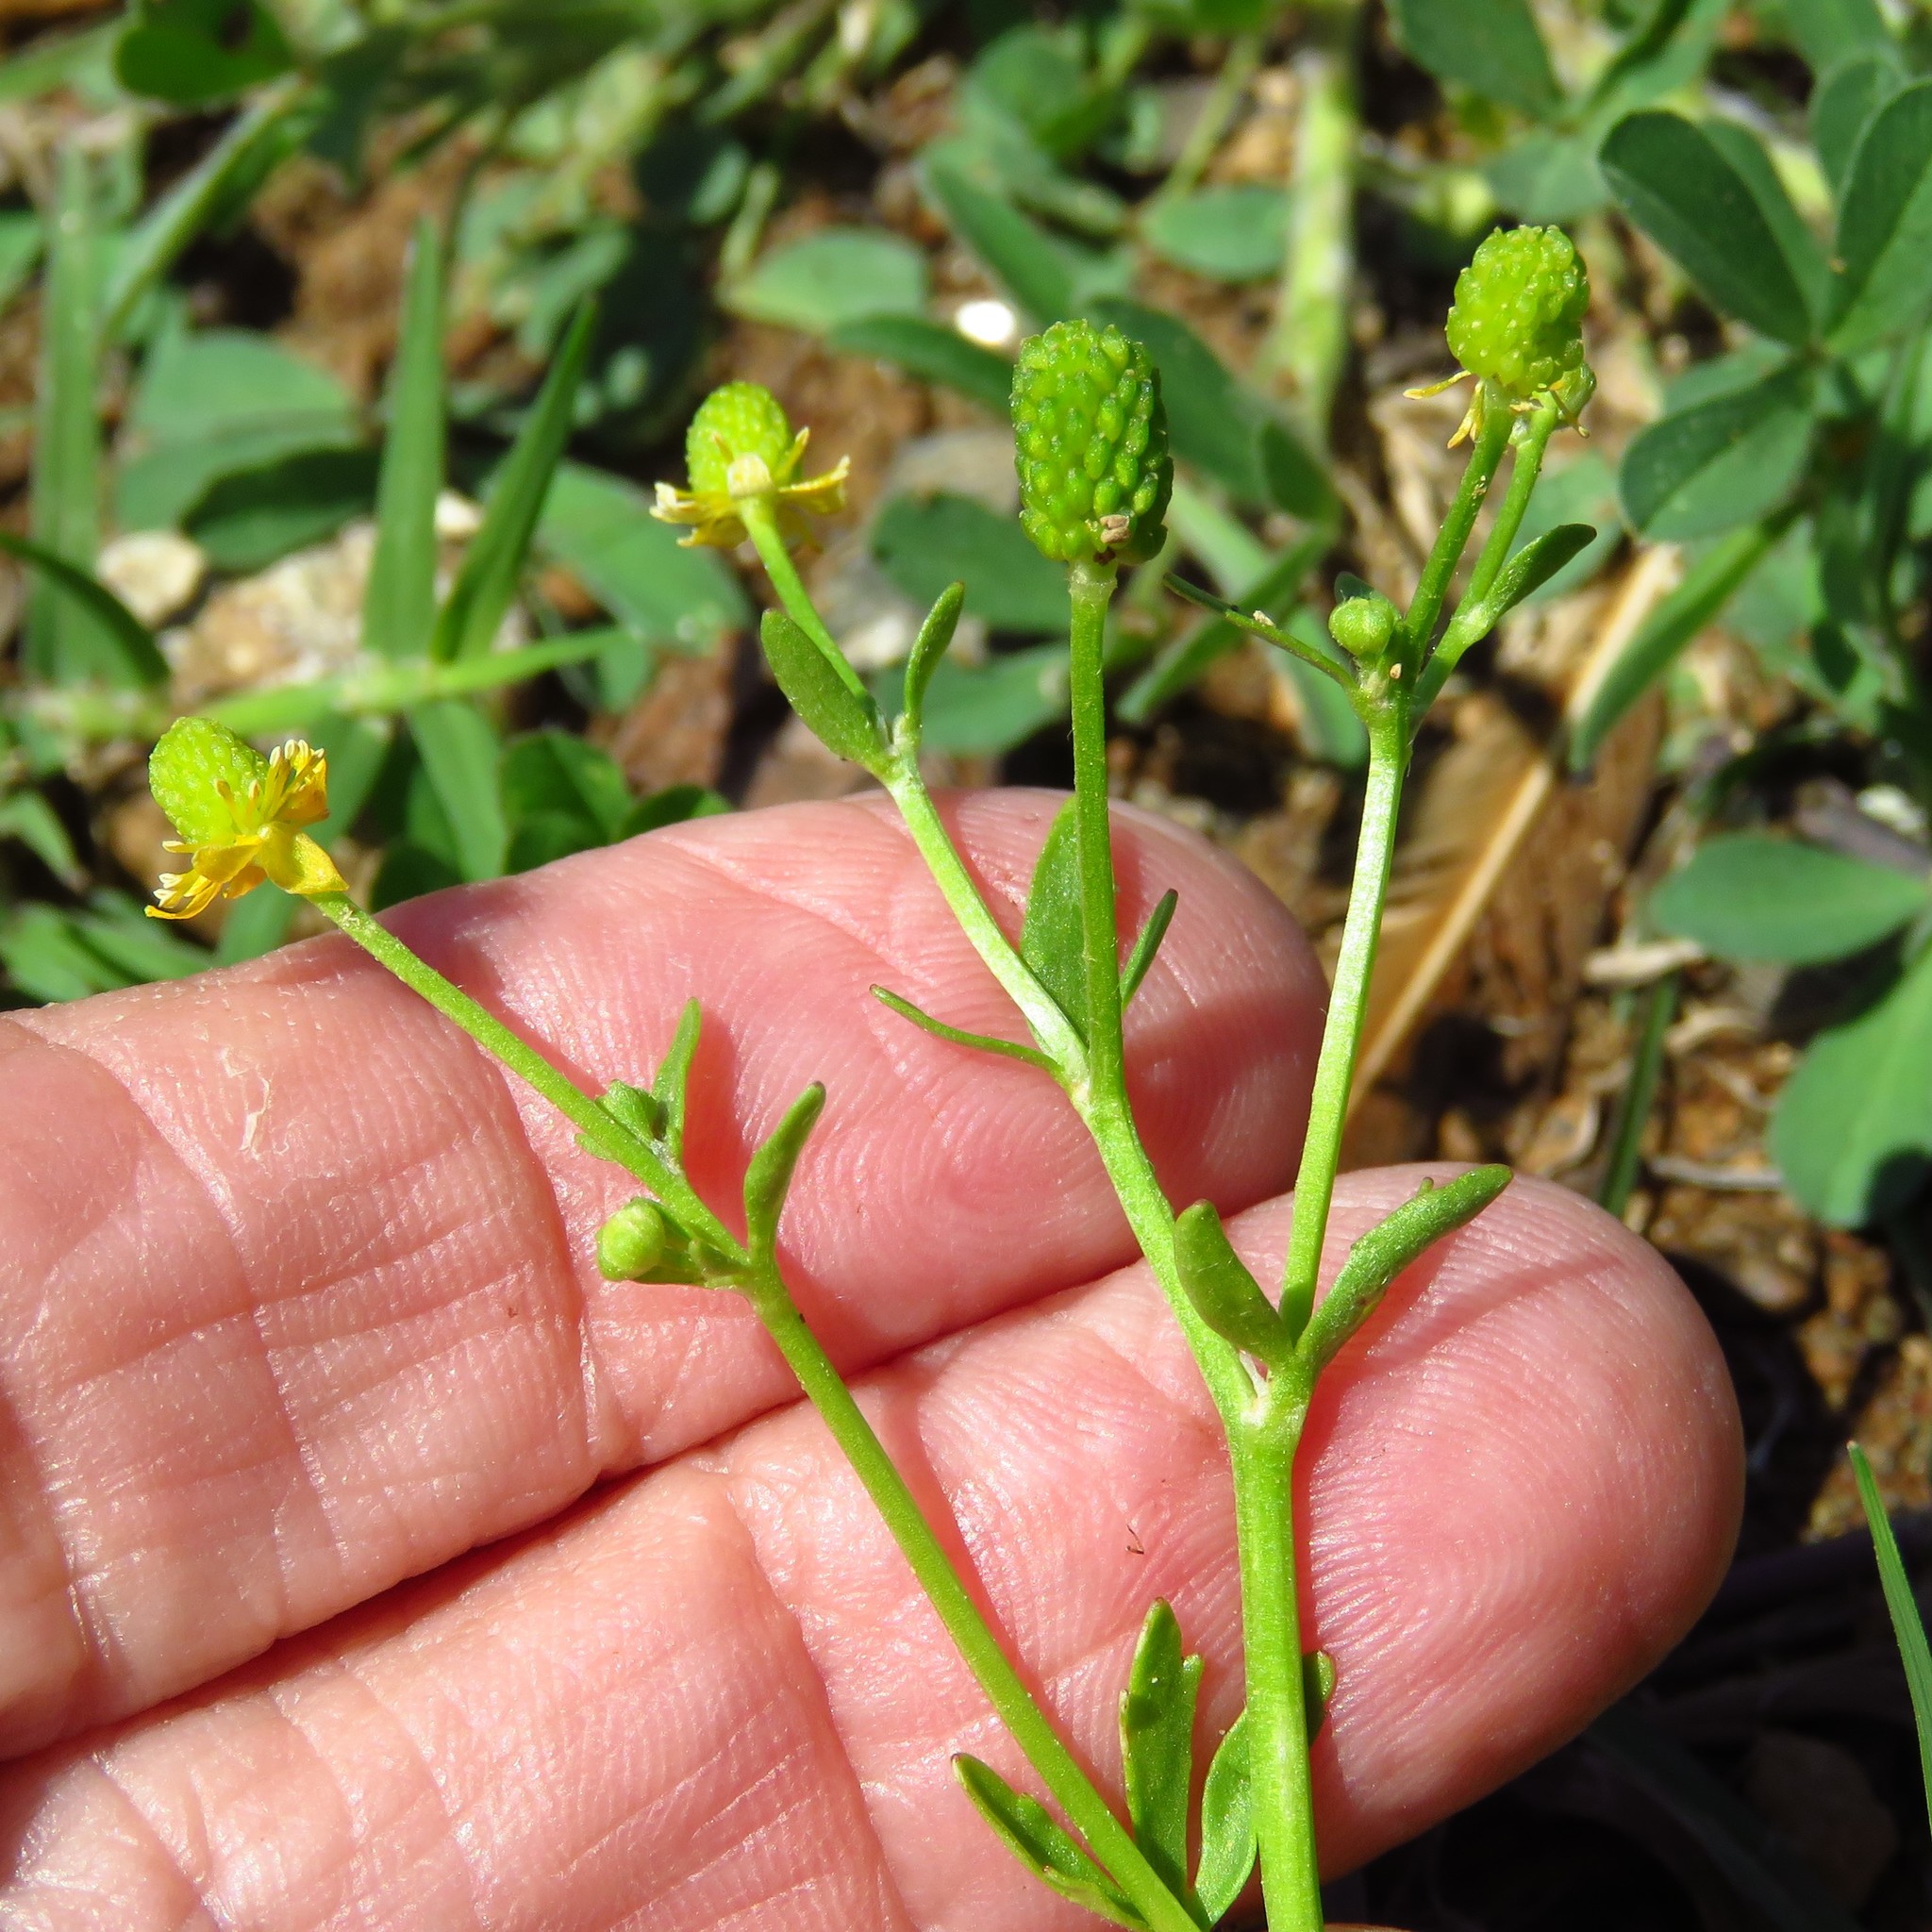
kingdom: Plantae
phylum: Tracheophyta
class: Magnoliopsida
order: Ranunculales
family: Ranunculaceae
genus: Ranunculus
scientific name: Ranunculus sceleratus
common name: Celery-leaved buttercup
